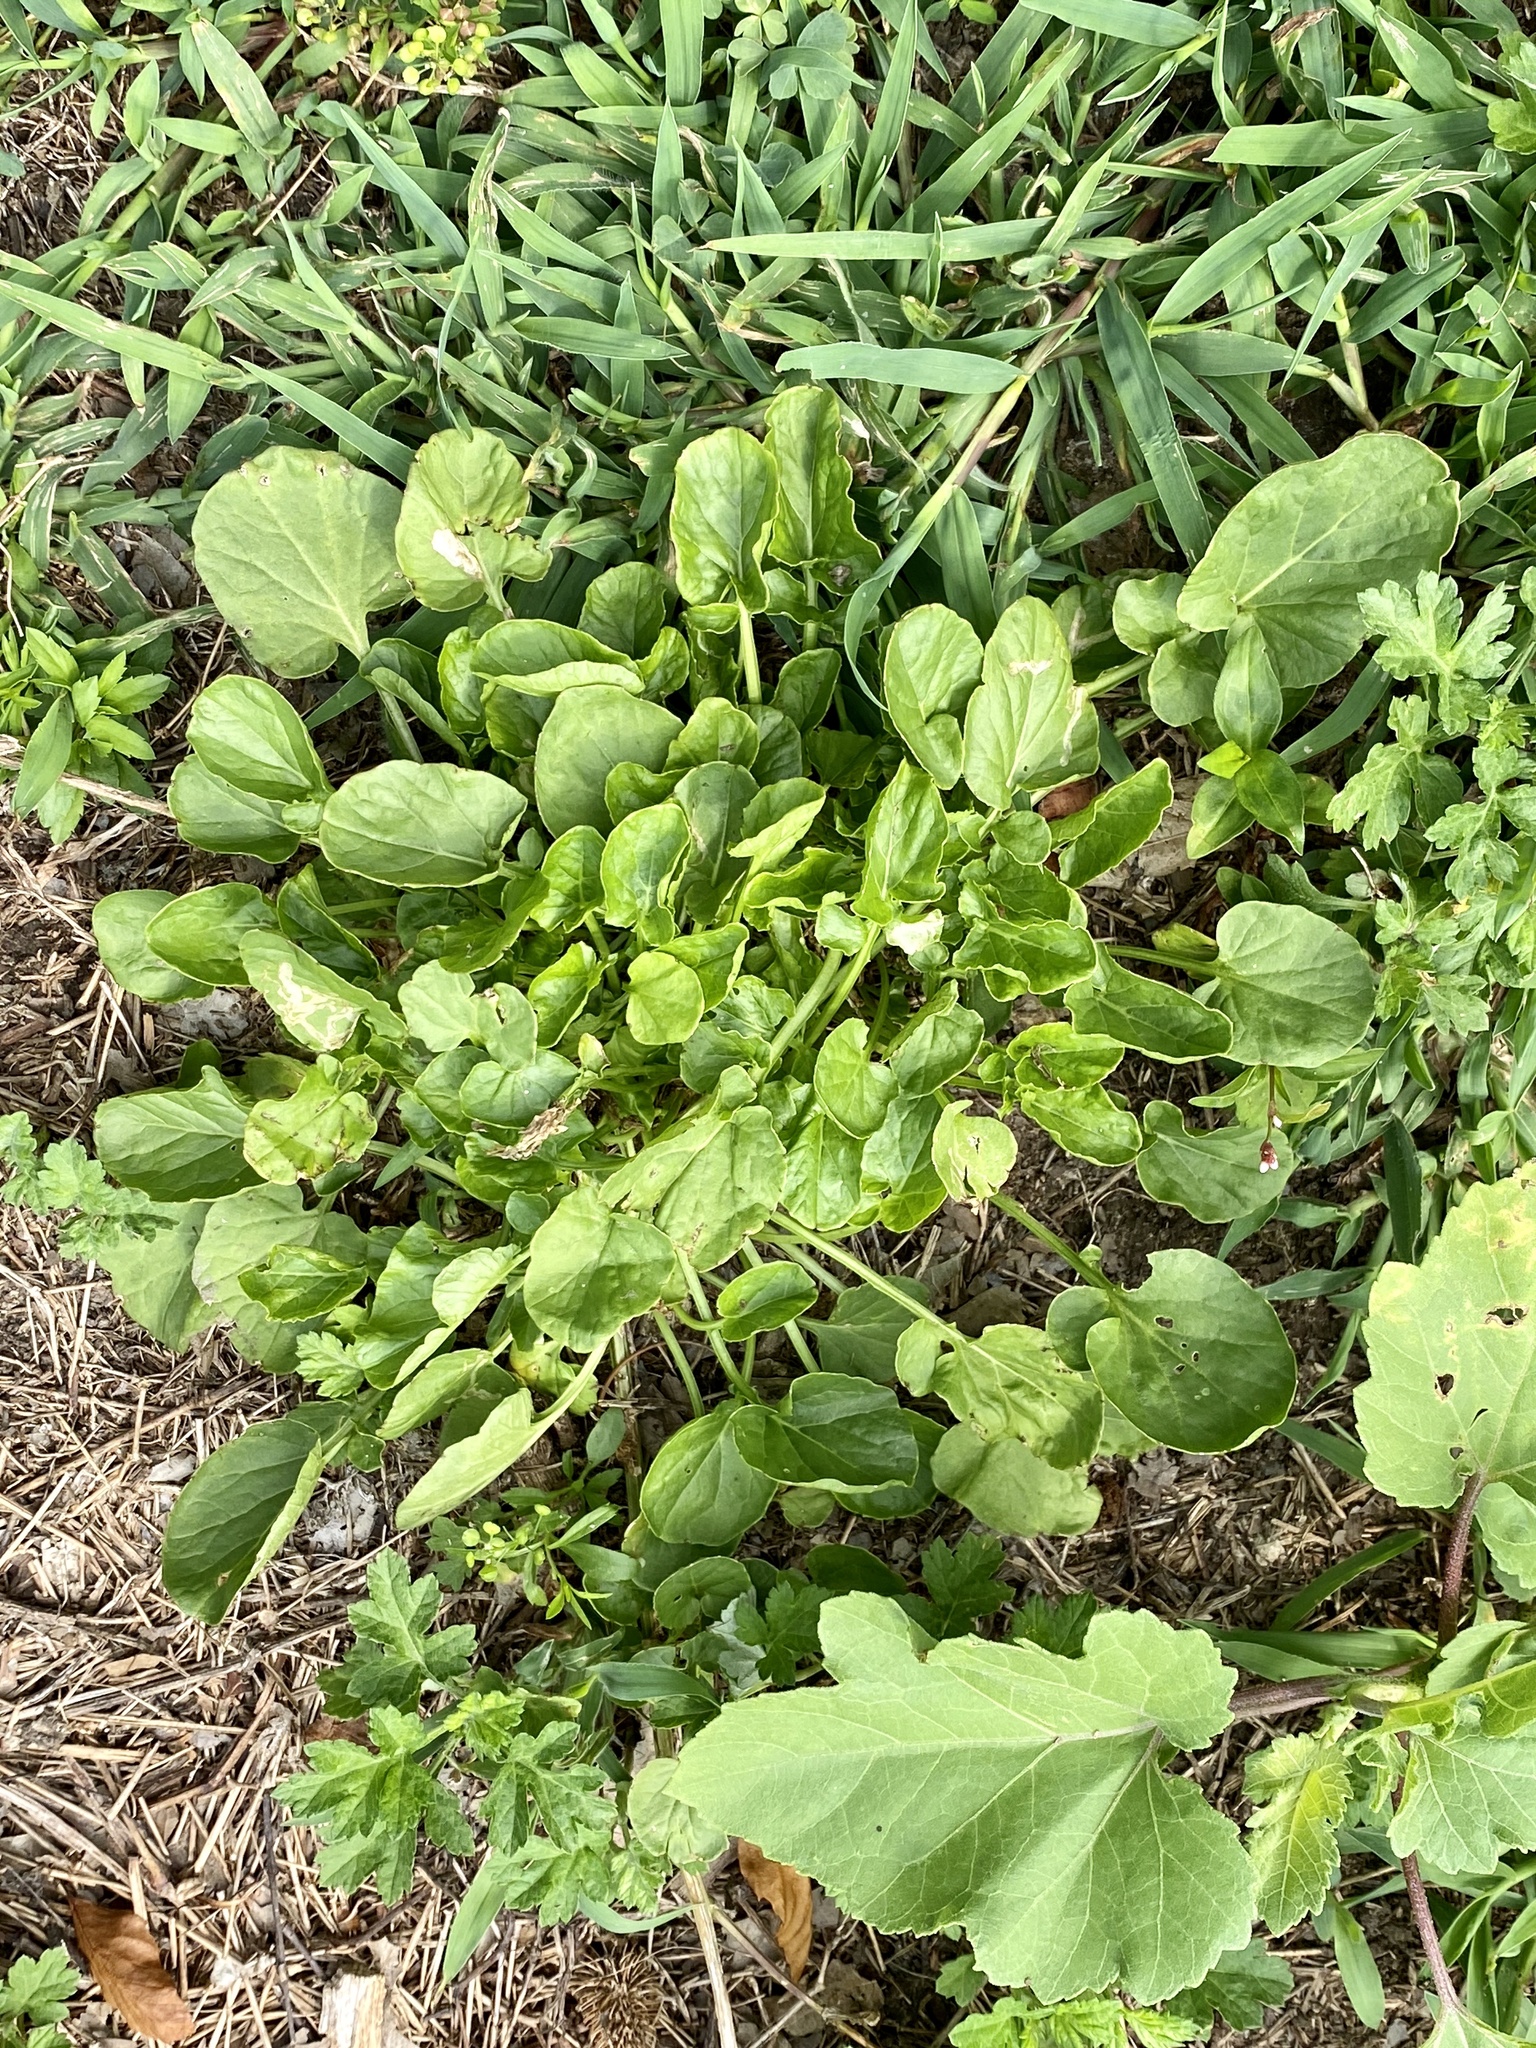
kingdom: Plantae
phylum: Tracheophyta
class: Magnoliopsida
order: Brassicales
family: Brassicaceae
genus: Barbarea
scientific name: Barbarea vulgaris
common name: Cressy-greens
